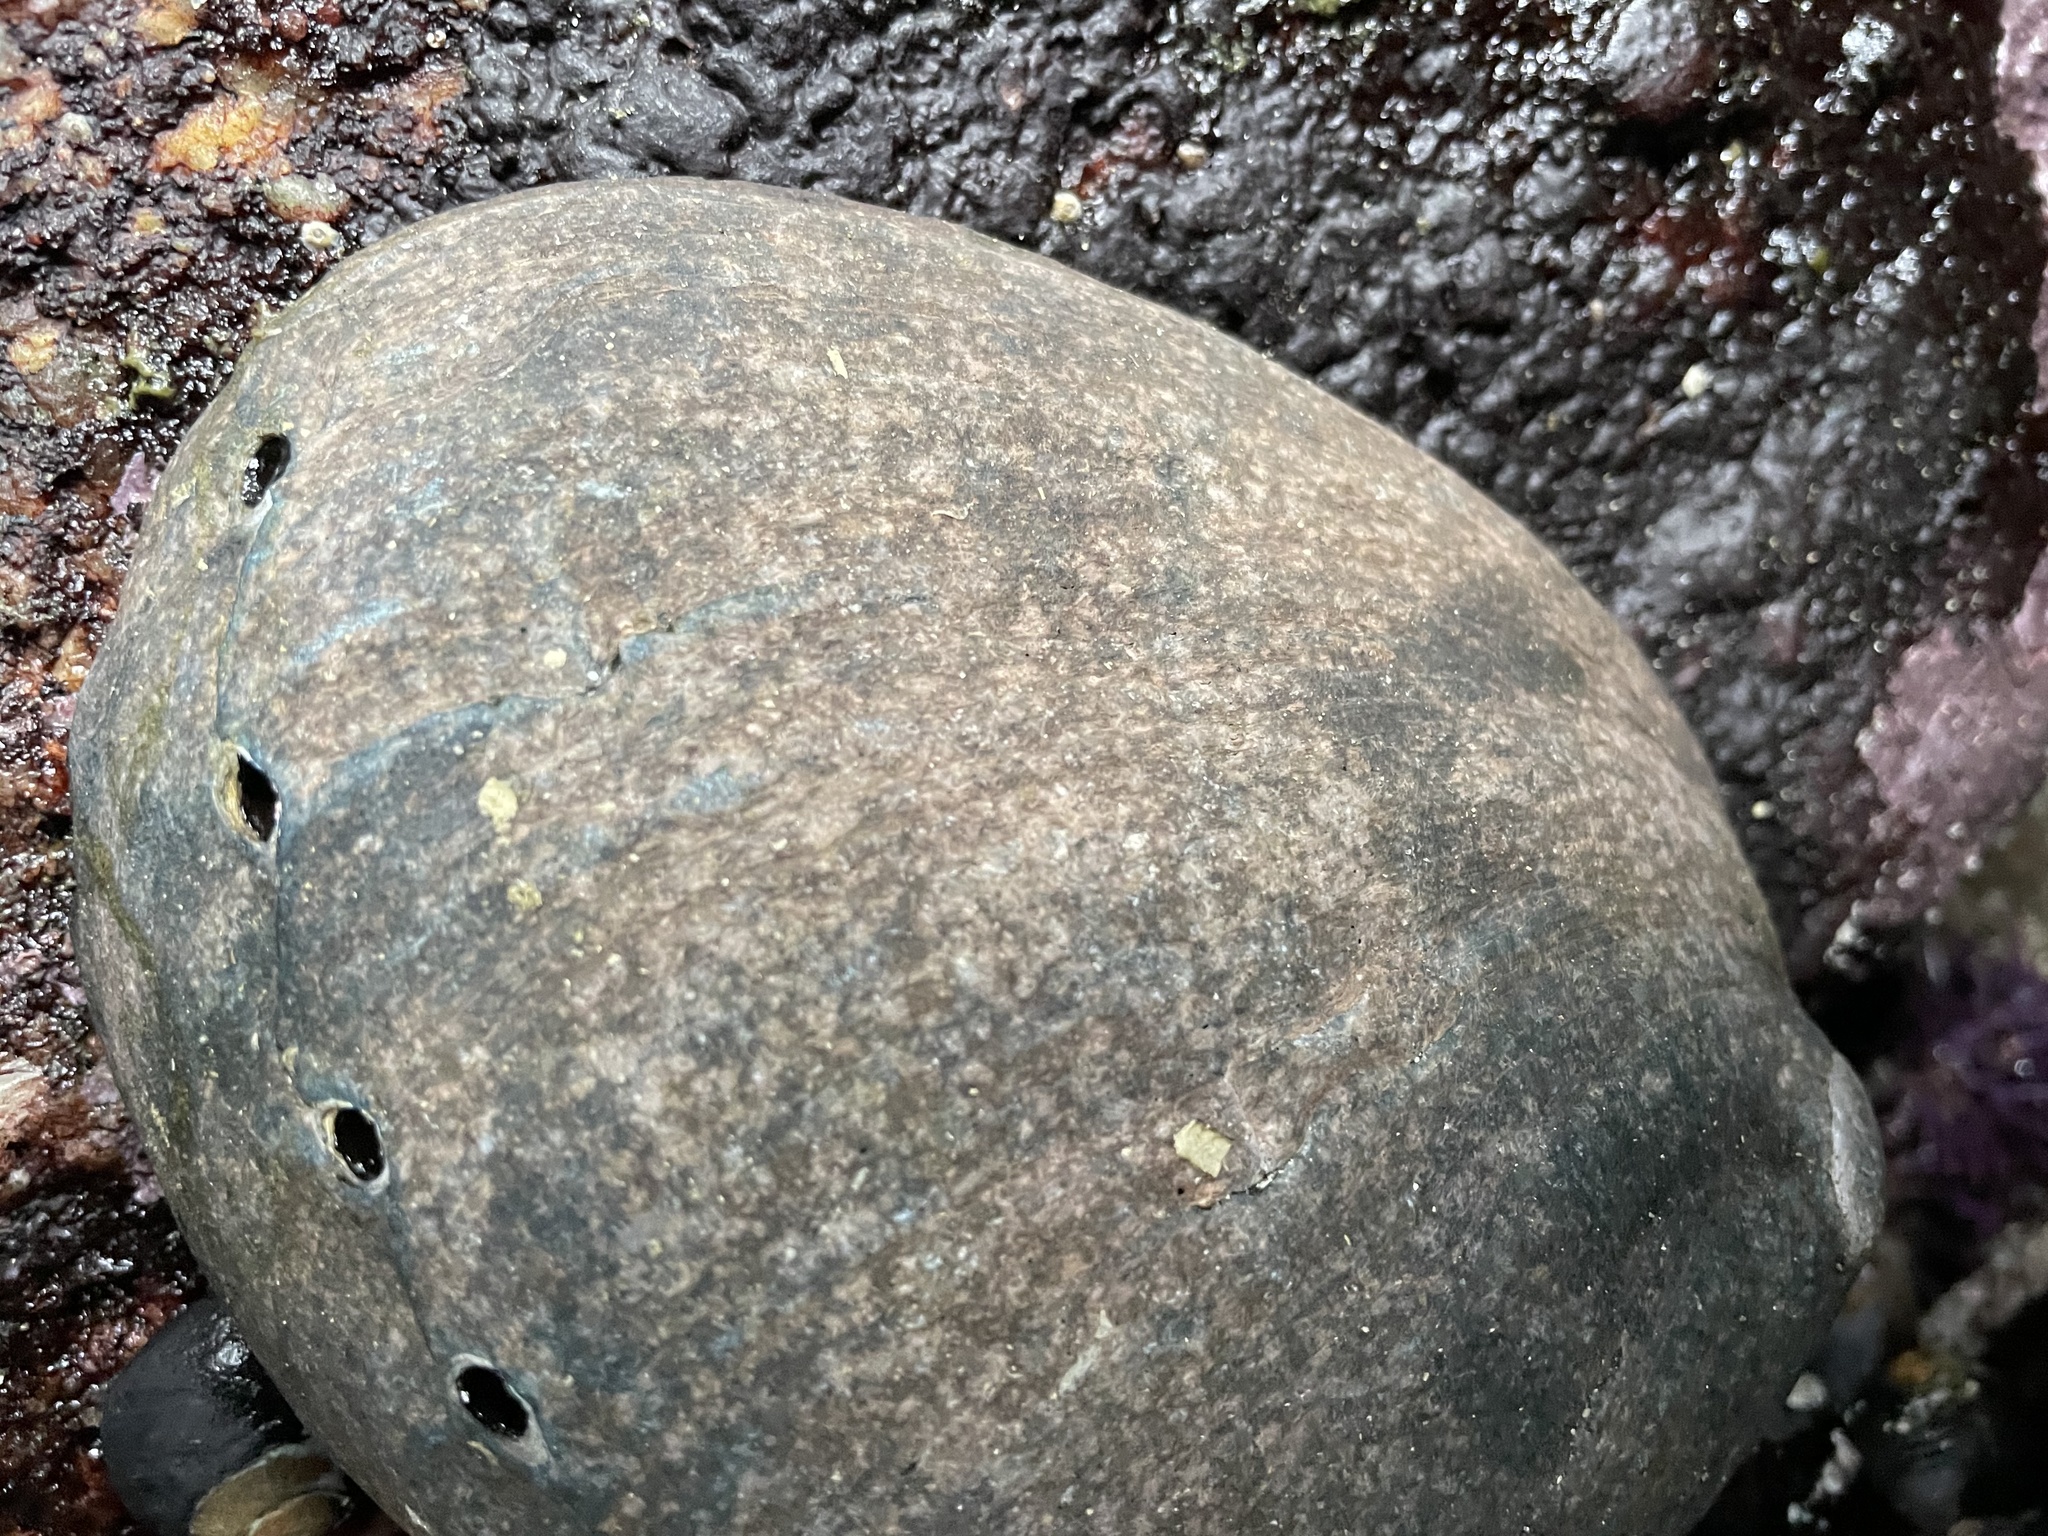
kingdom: Animalia
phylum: Mollusca
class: Gastropoda
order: Lepetellida
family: Haliotidae
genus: Haliotis
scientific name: Haliotis cracherodii
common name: Black abalone
